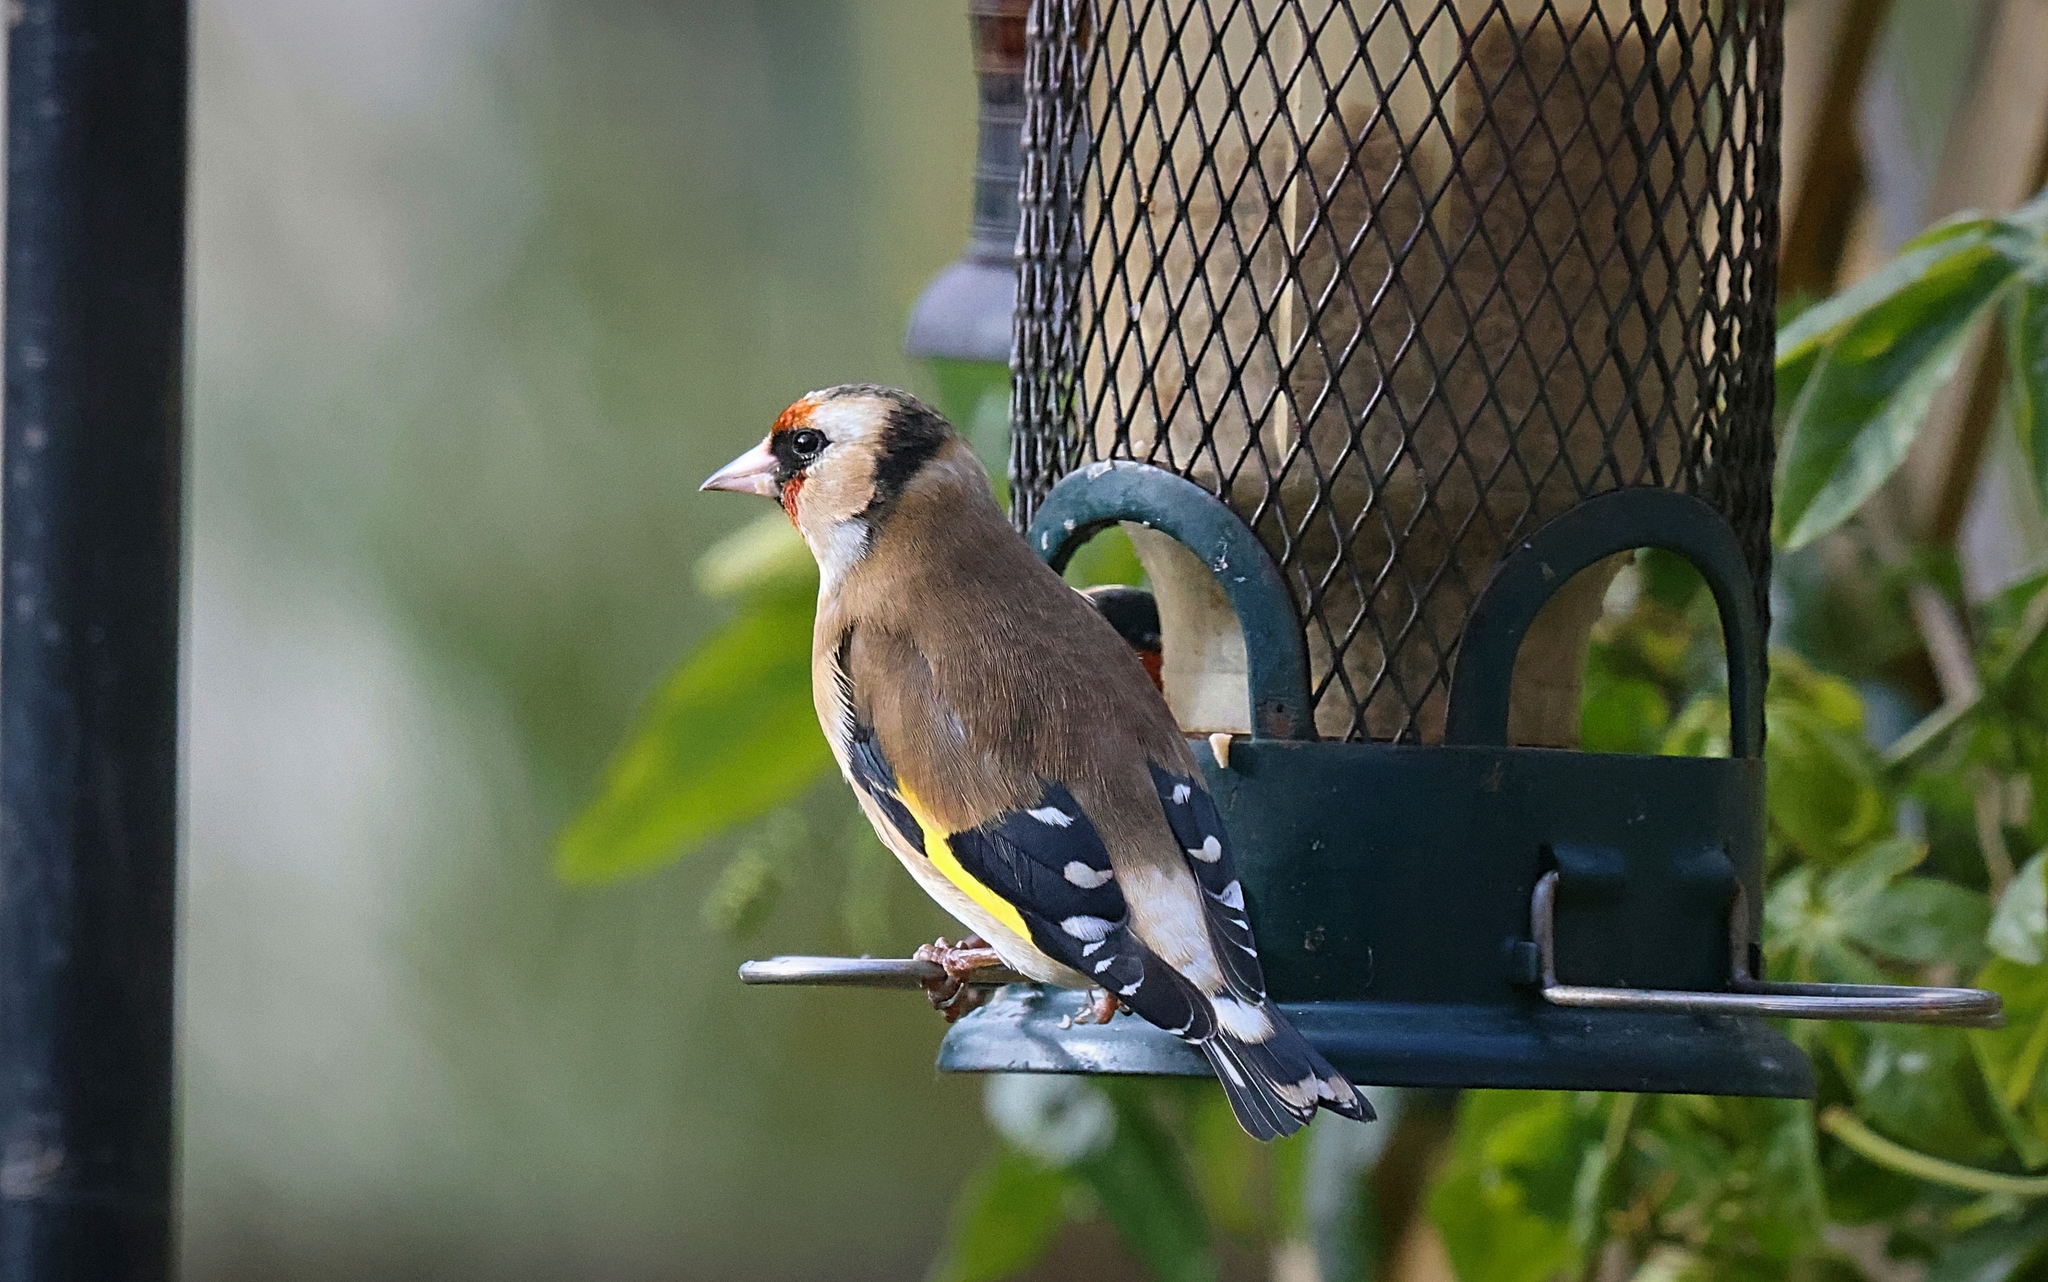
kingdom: Animalia
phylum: Chordata
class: Aves
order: Passeriformes
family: Fringillidae
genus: Carduelis
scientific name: Carduelis carduelis
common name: European goldfinch
